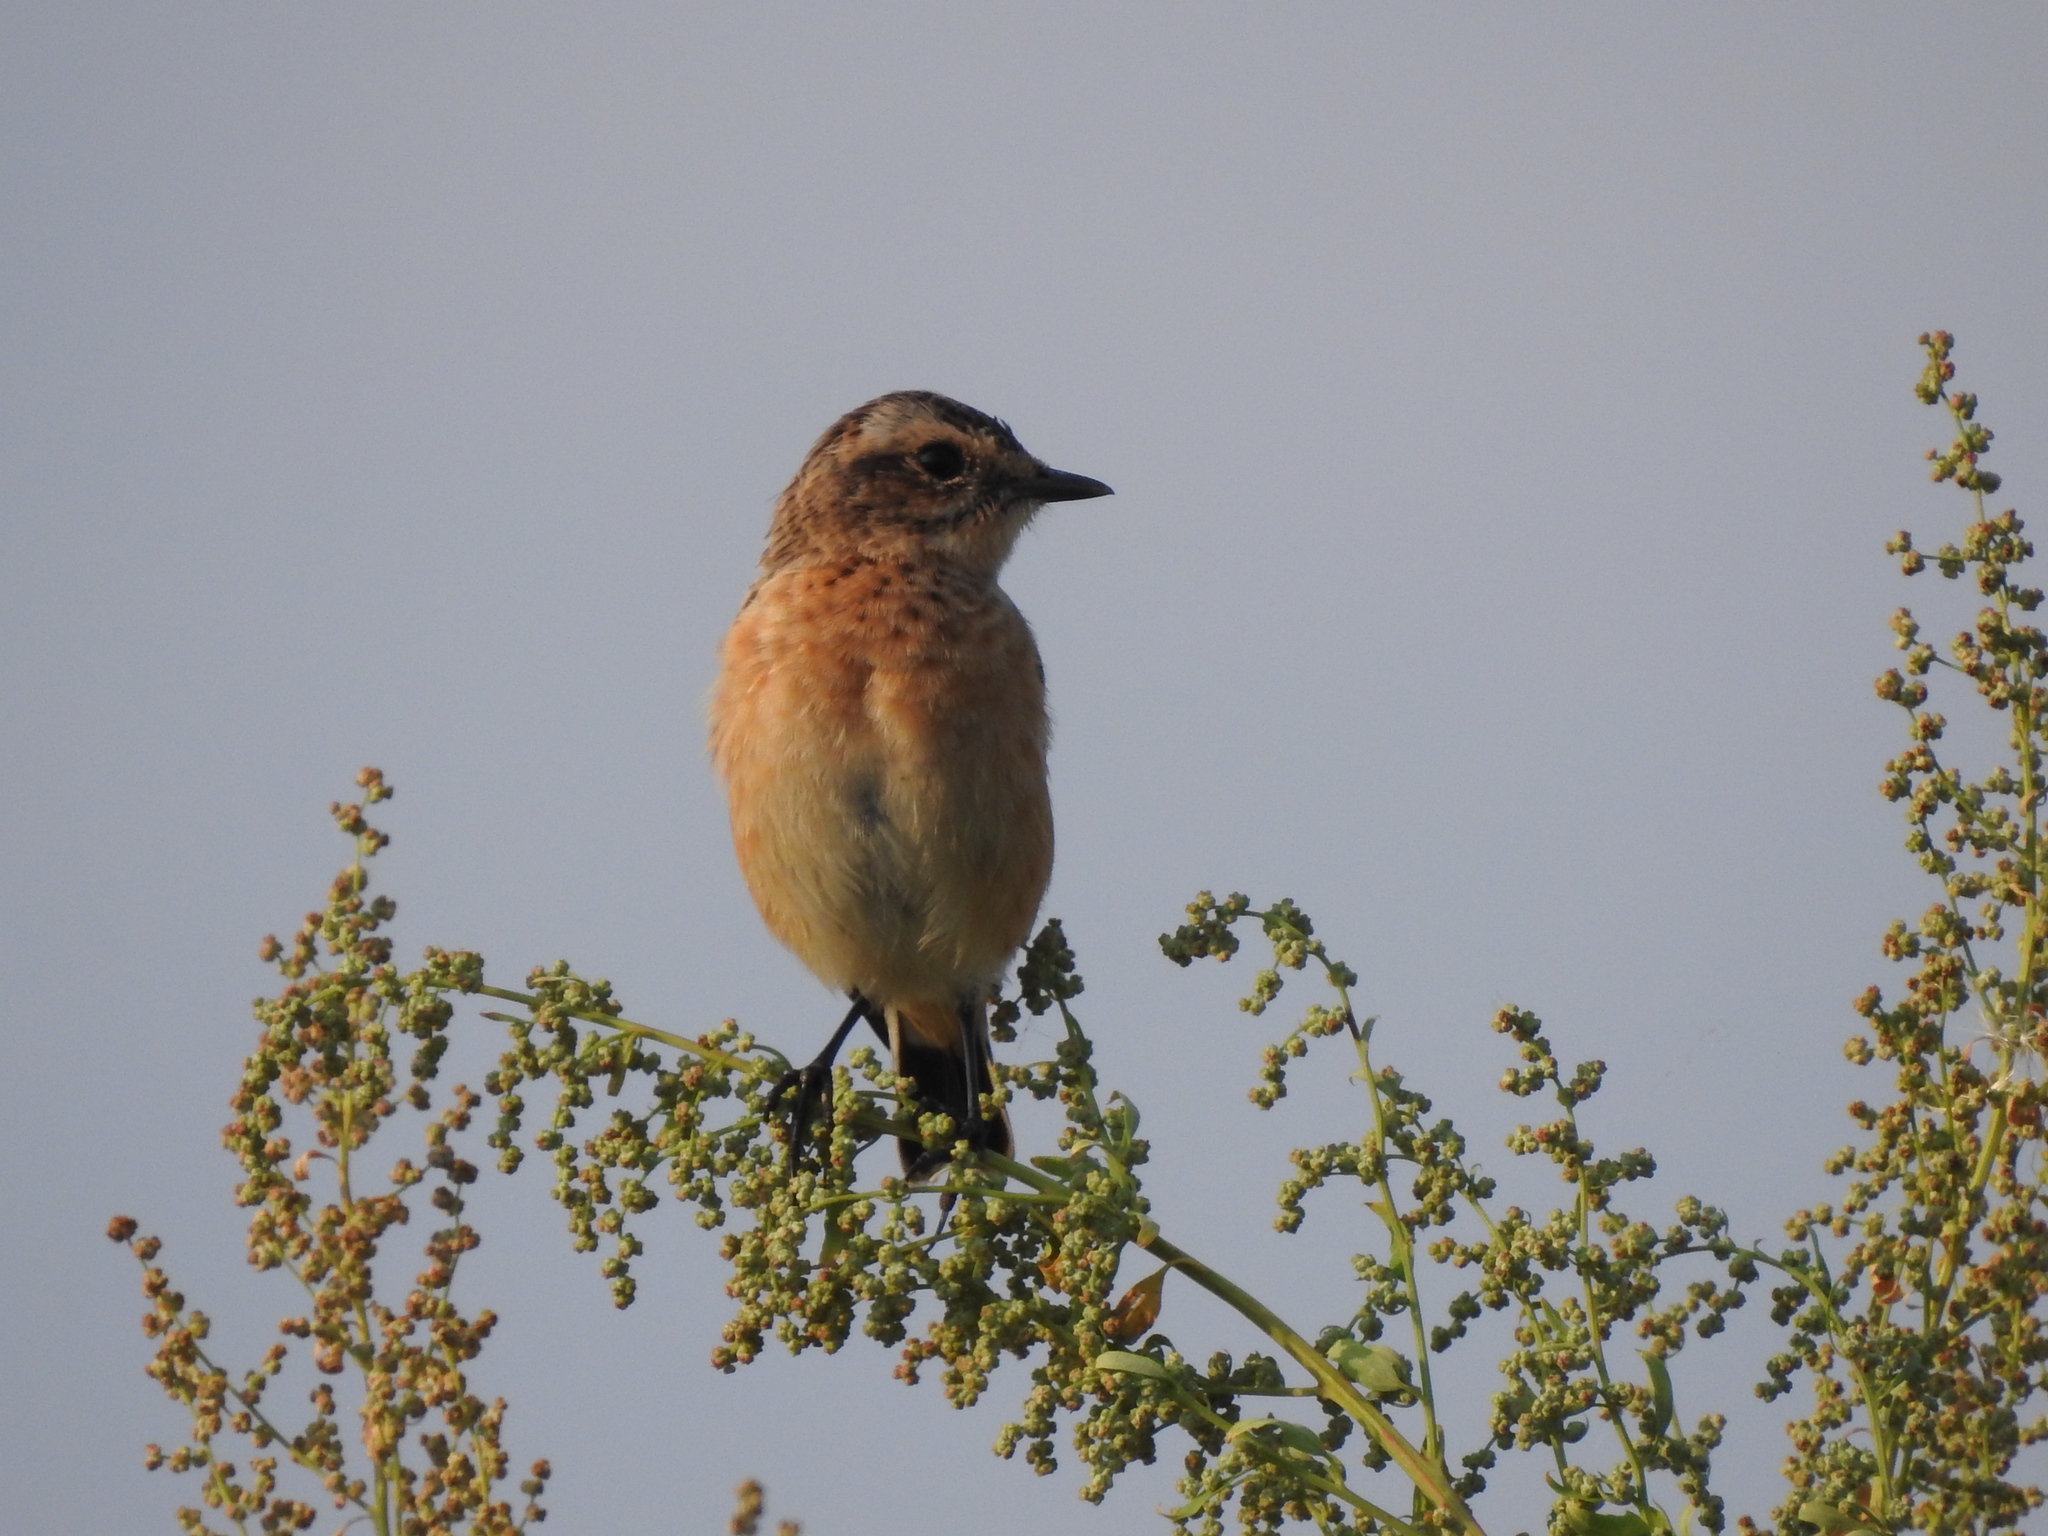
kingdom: Animalia
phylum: Chordata
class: Aves
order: Passeriformes
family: Muscicapidae
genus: Saxicola
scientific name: Saxicola rubetra
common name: Whinchat
